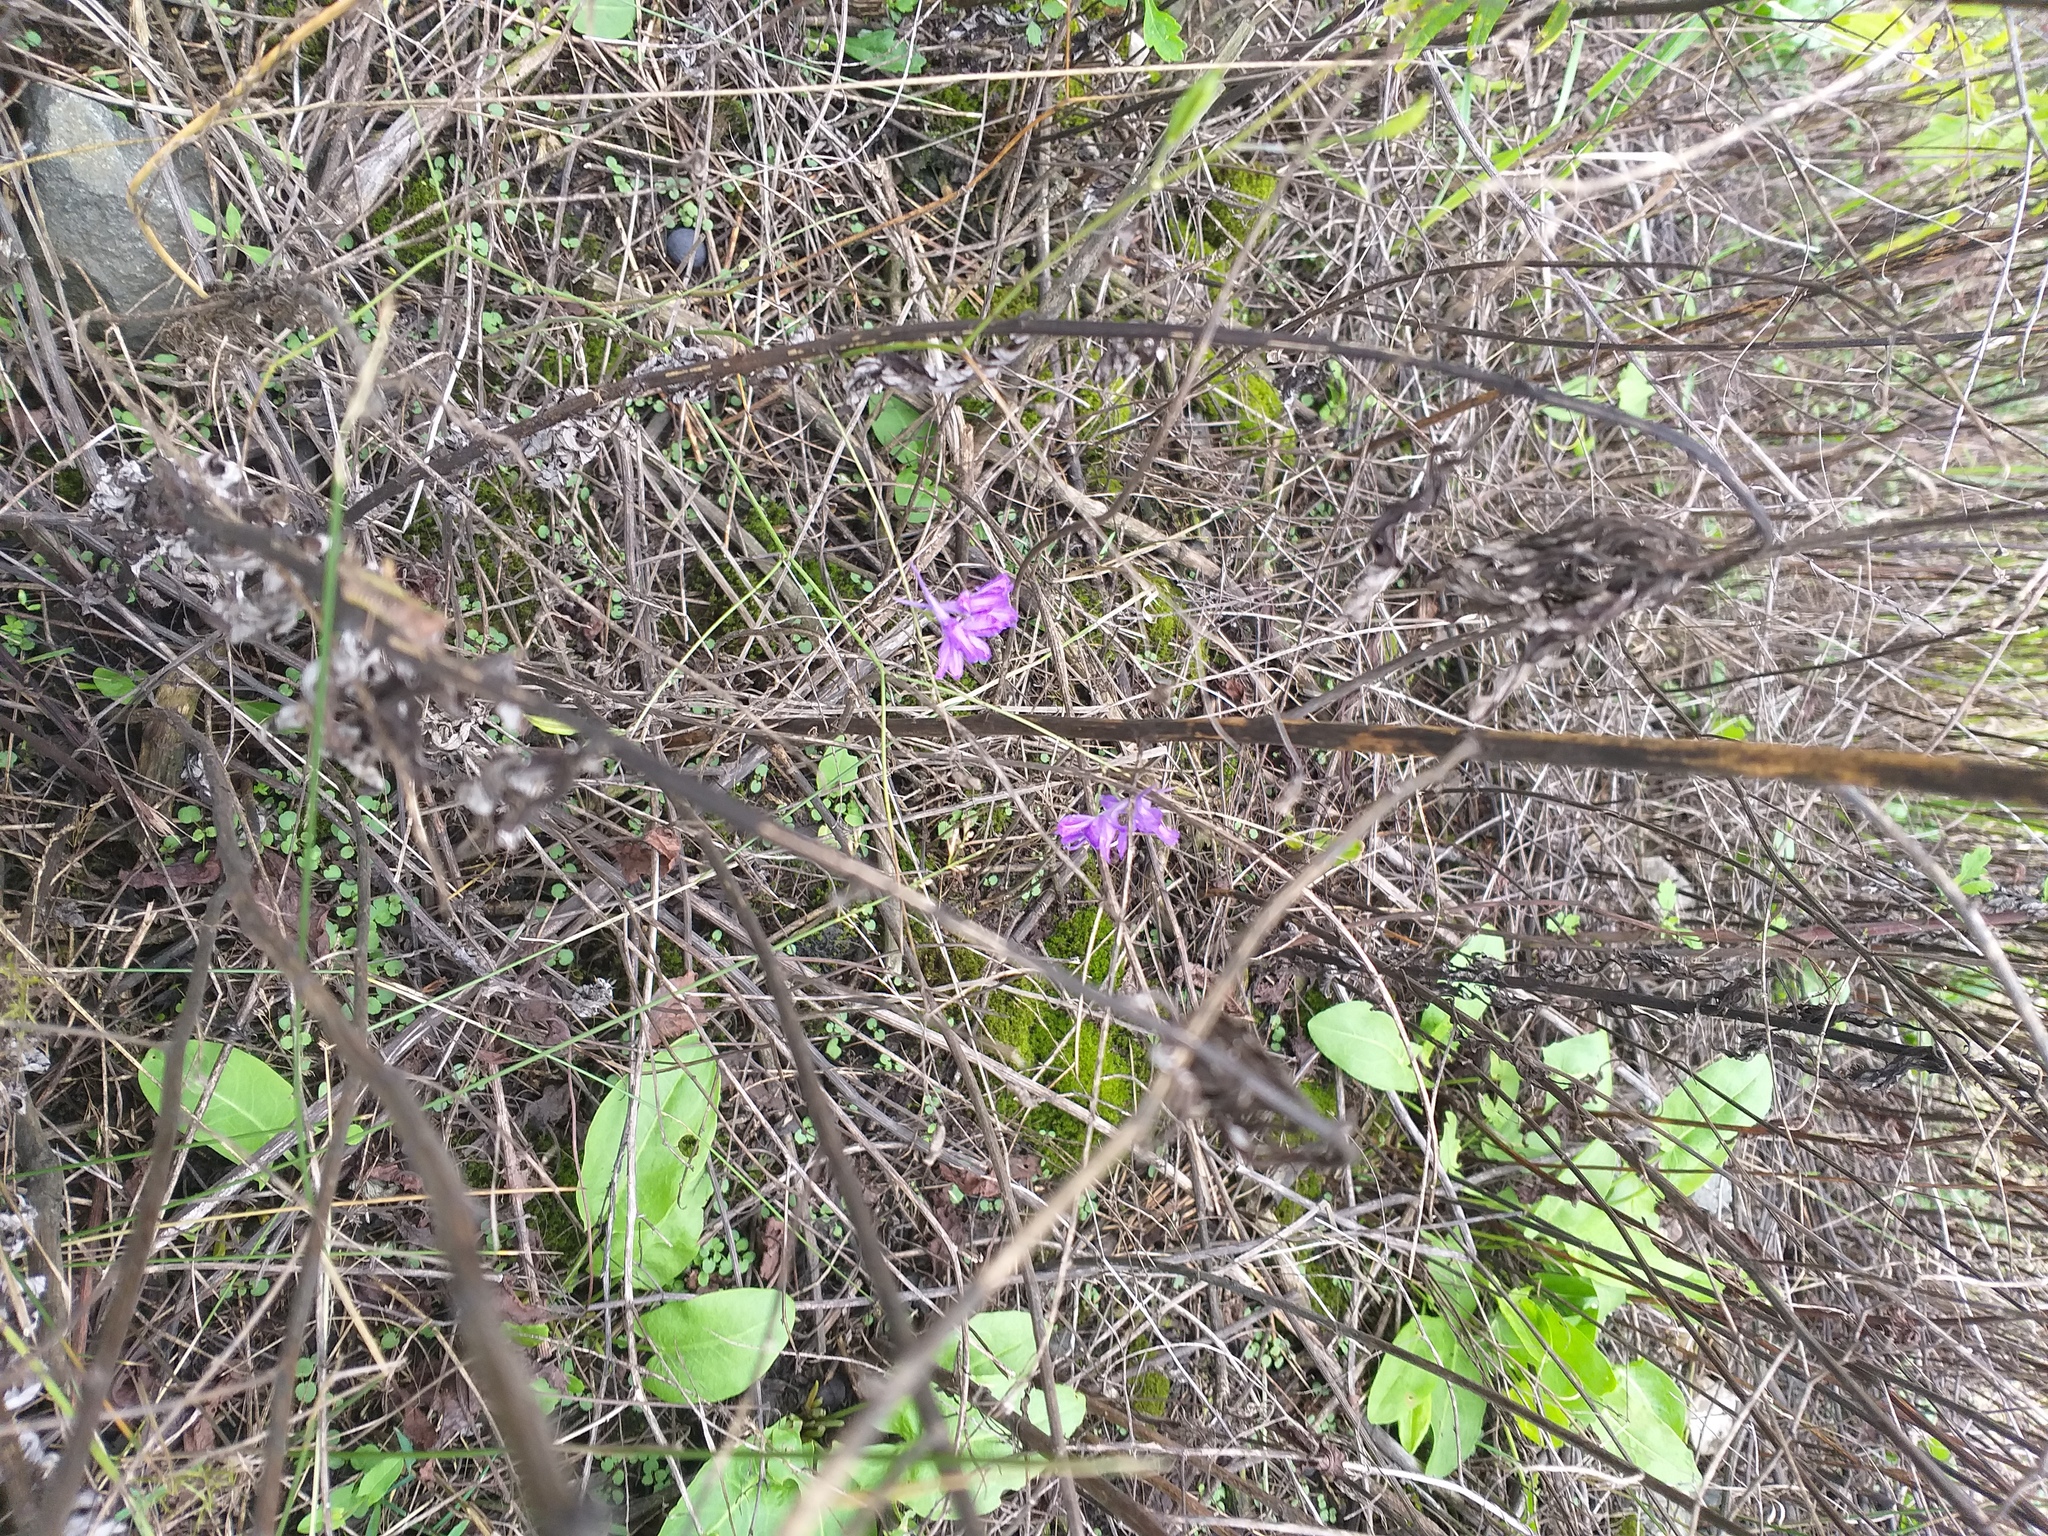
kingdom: Plantae
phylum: Tracheophyta
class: Magnoliopsida
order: Ranunculales
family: Ranunculaceae
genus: Delphinium
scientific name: Delphinium consolida
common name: Branching larkspur
